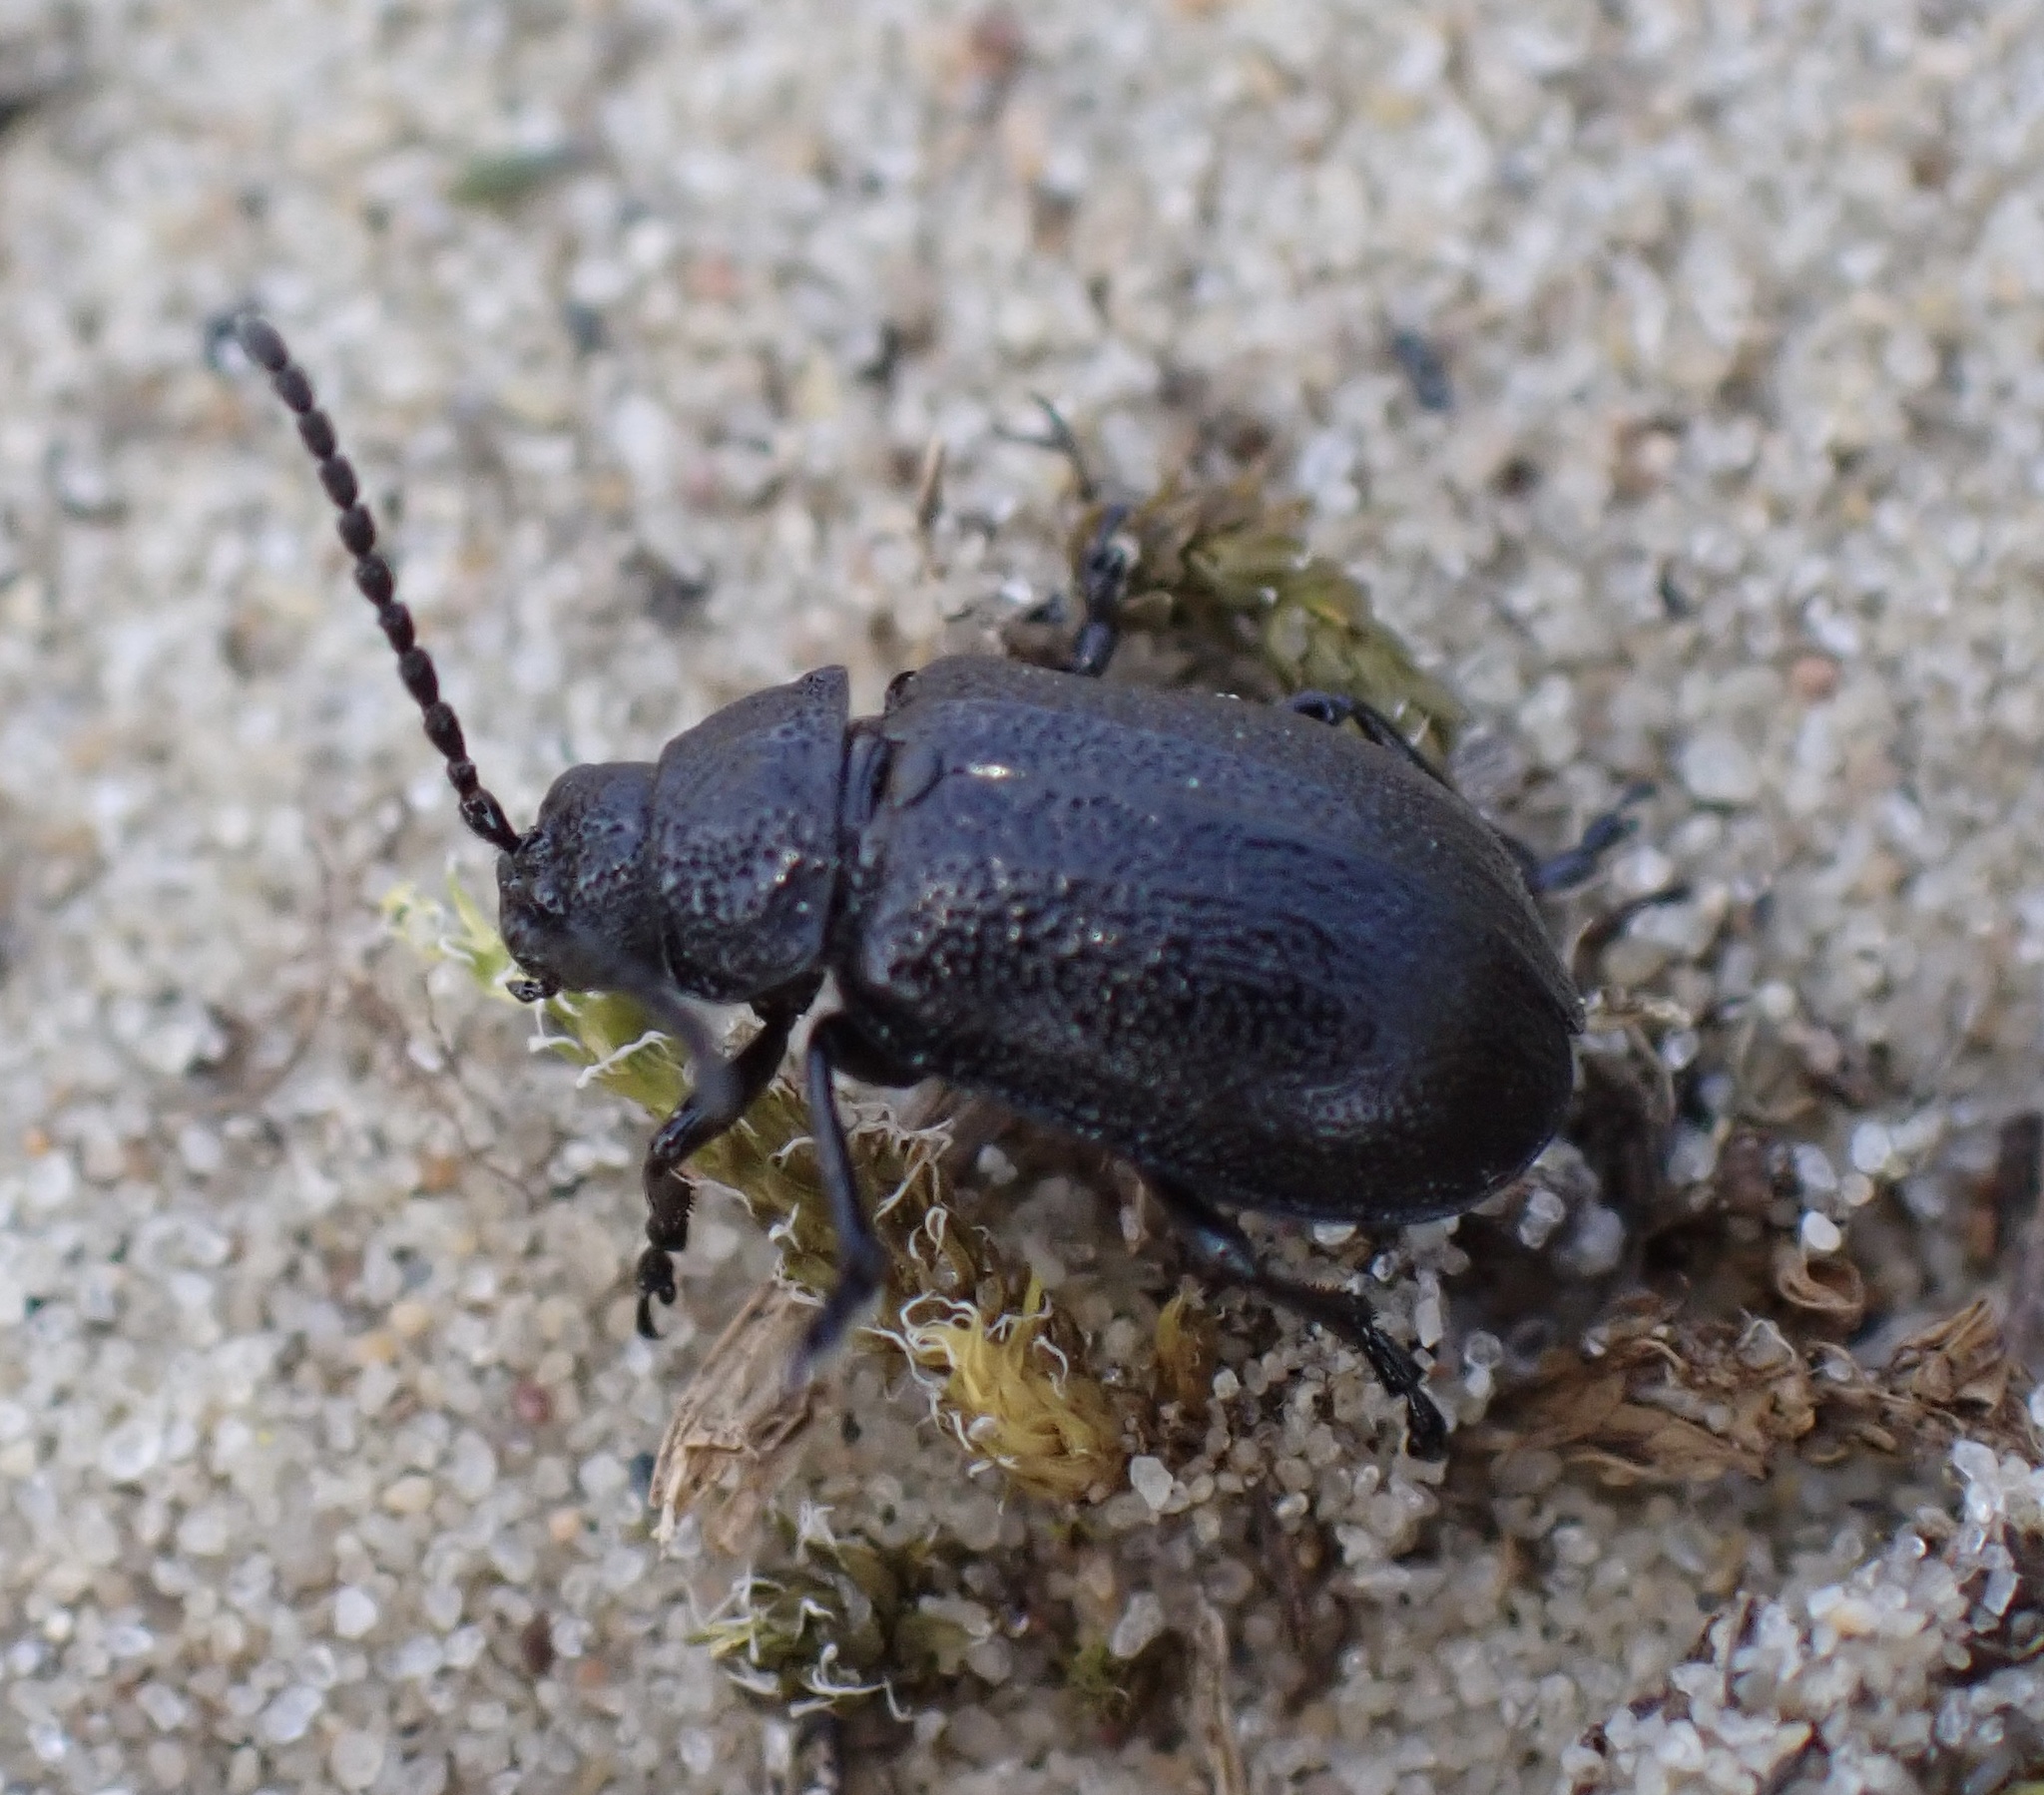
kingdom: Animalia
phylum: Arthropoda
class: Insecta
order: Coleoptera
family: Chrysomelidae
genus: Galeruca
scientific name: Galeruca tanaceti
